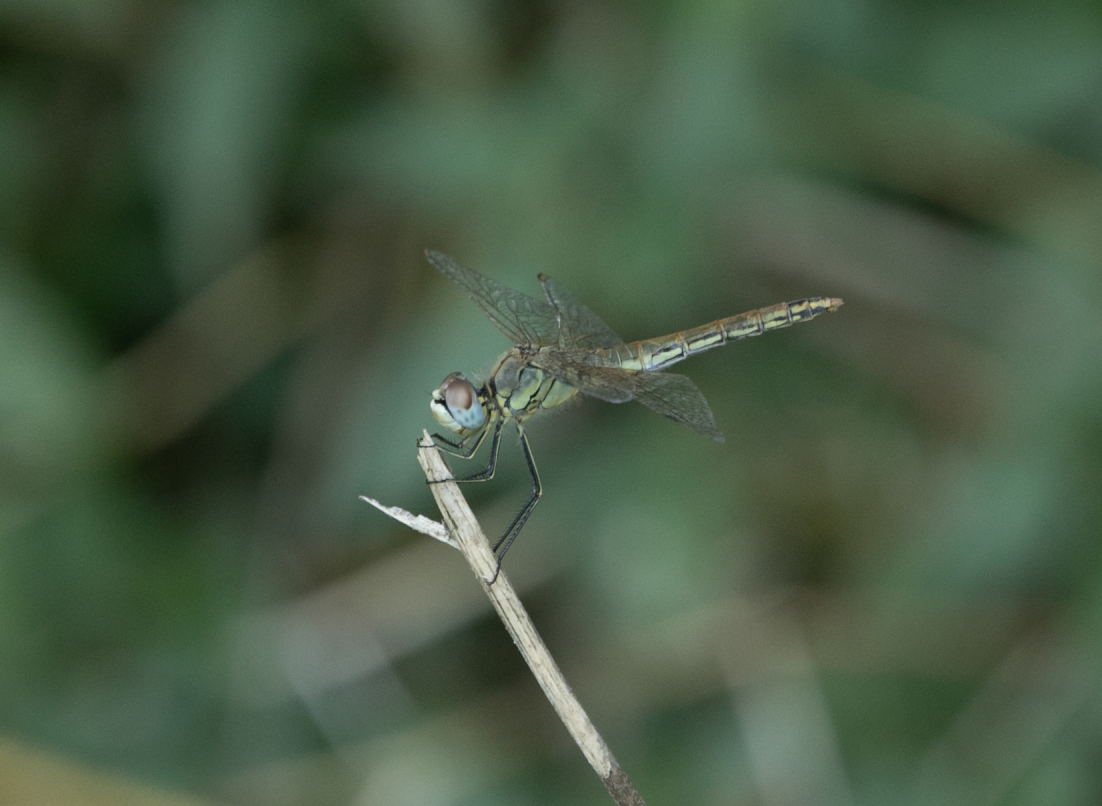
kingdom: Animalia
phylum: Arthropoda
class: Insecta
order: Odonata
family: Libellulidae
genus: Sympetrum
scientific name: Sympetrum fonscolombii
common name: Red-veined darter
